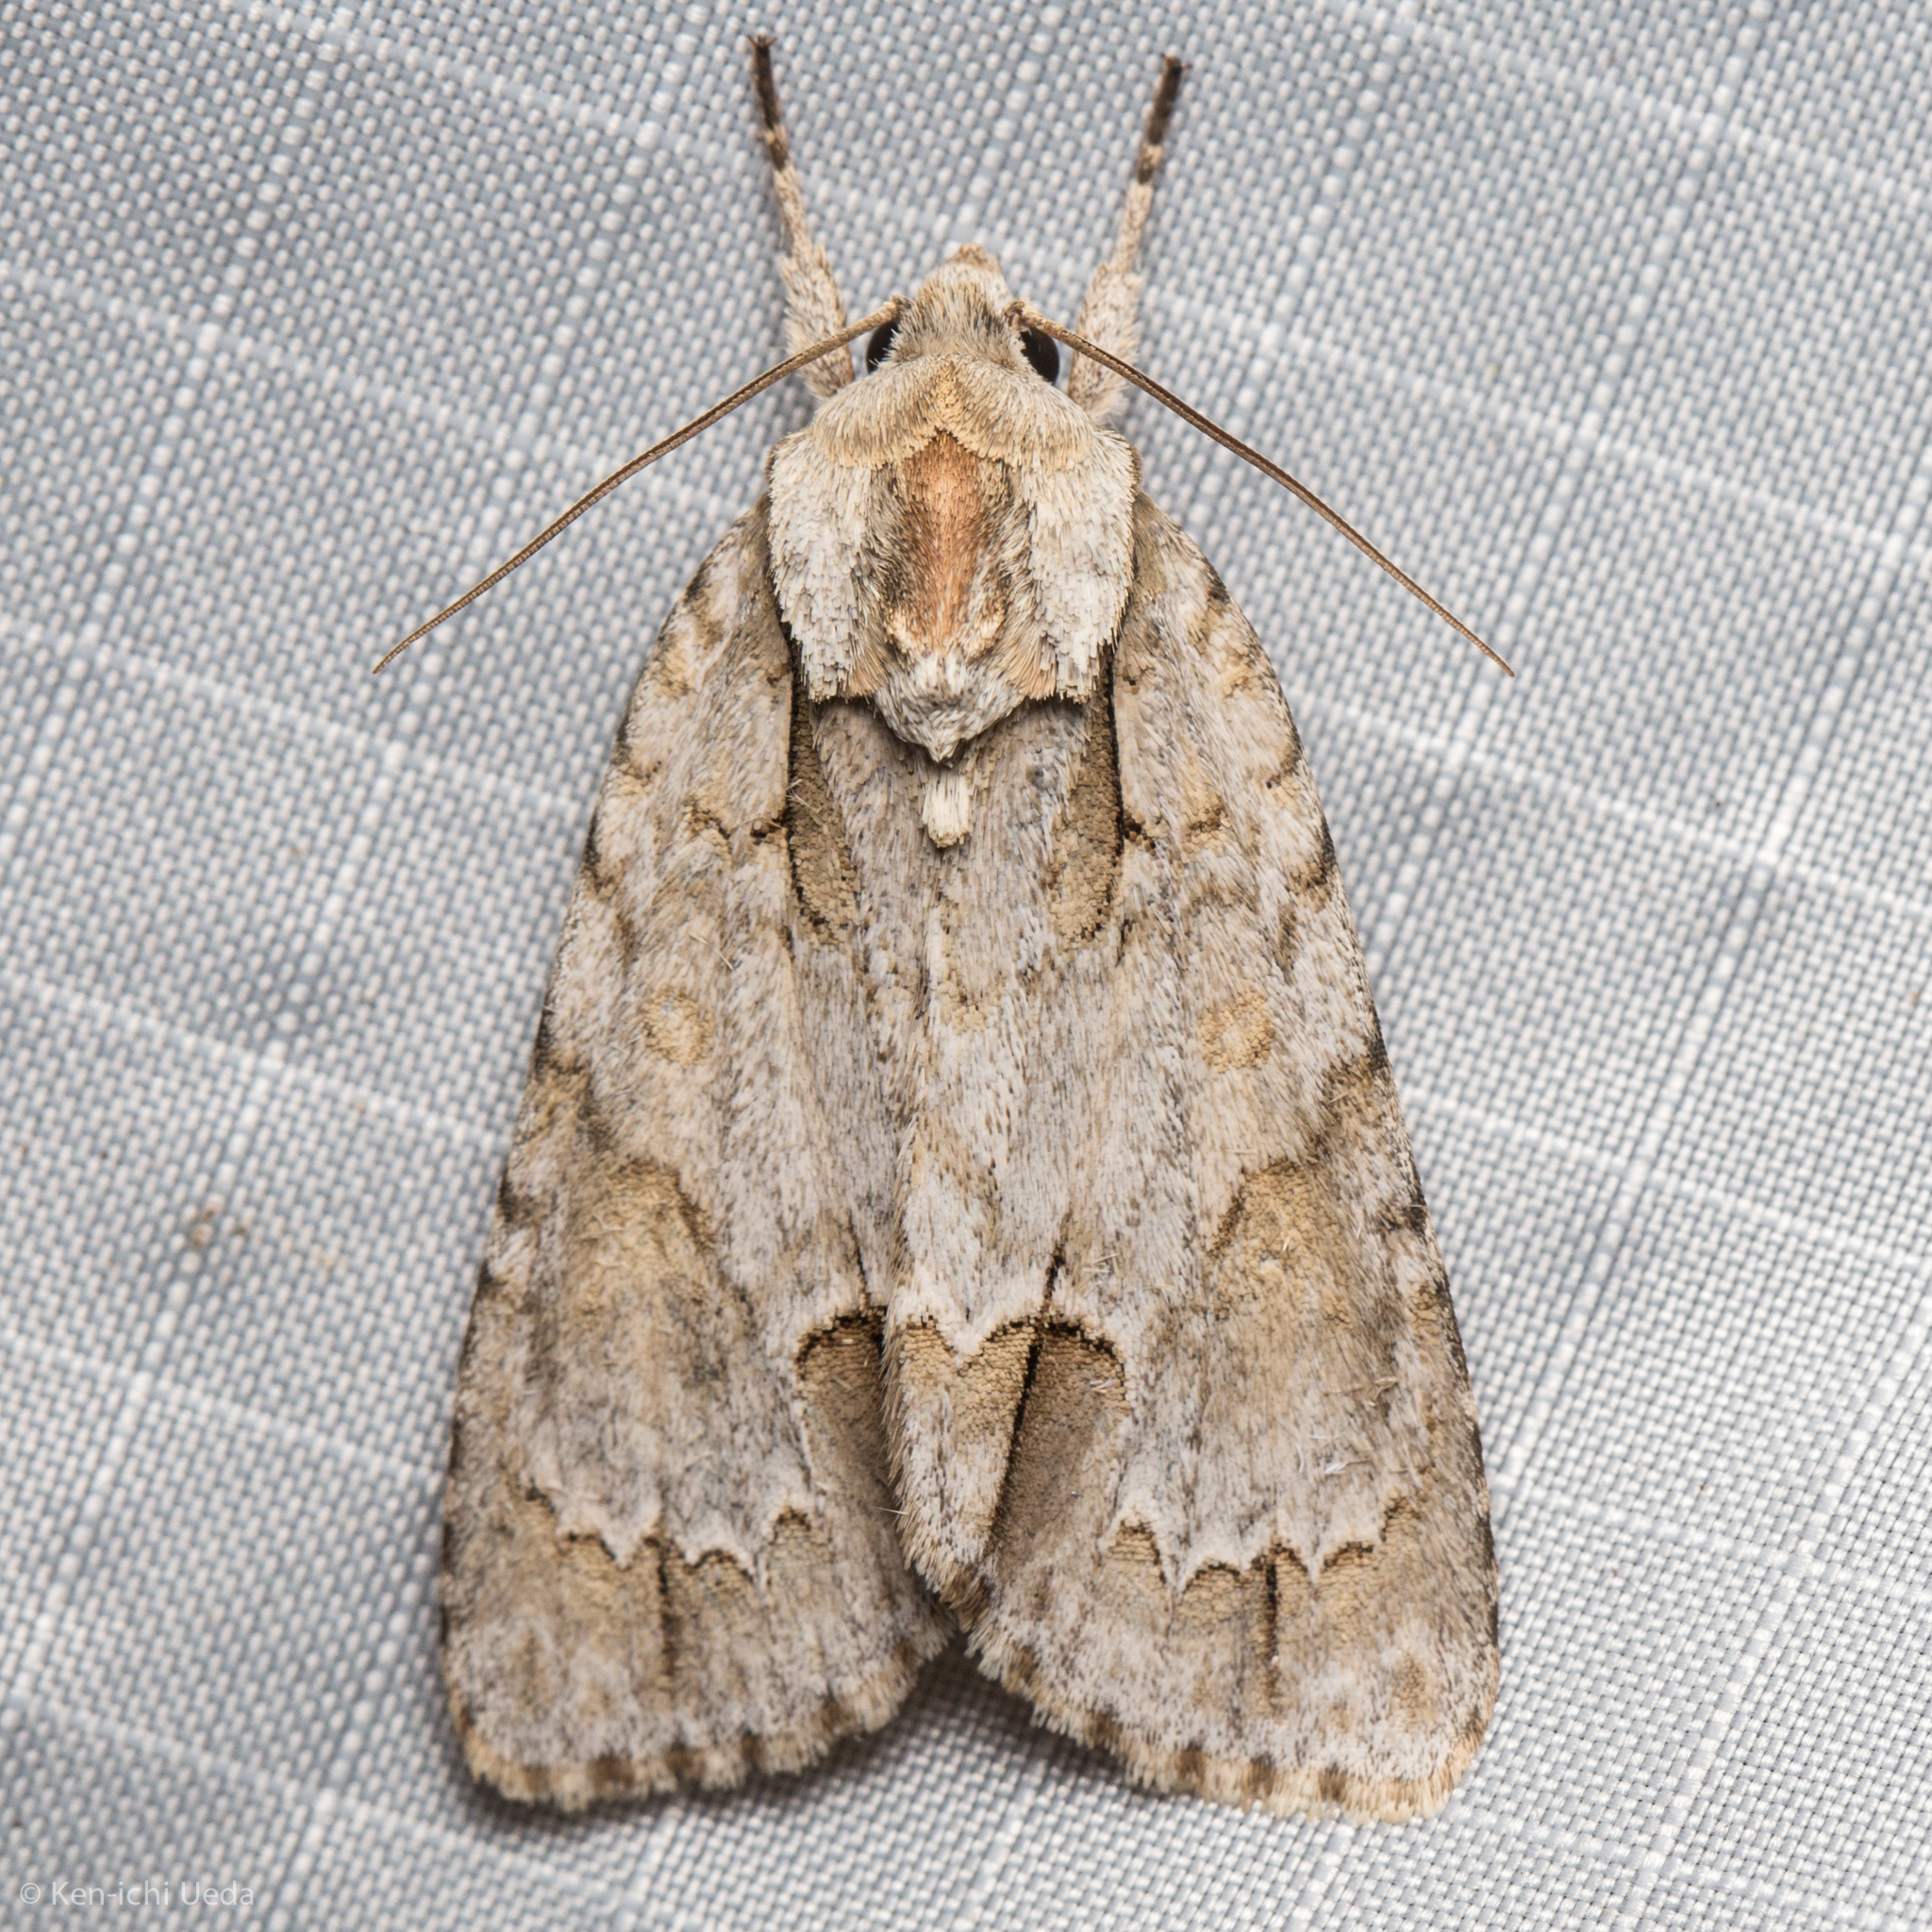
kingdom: Animalia
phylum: Arthropoda
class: Insecta
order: Lepidoptera
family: Noctuidae
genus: Acronicta
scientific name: Acronicta morula
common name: Ochre dagger
